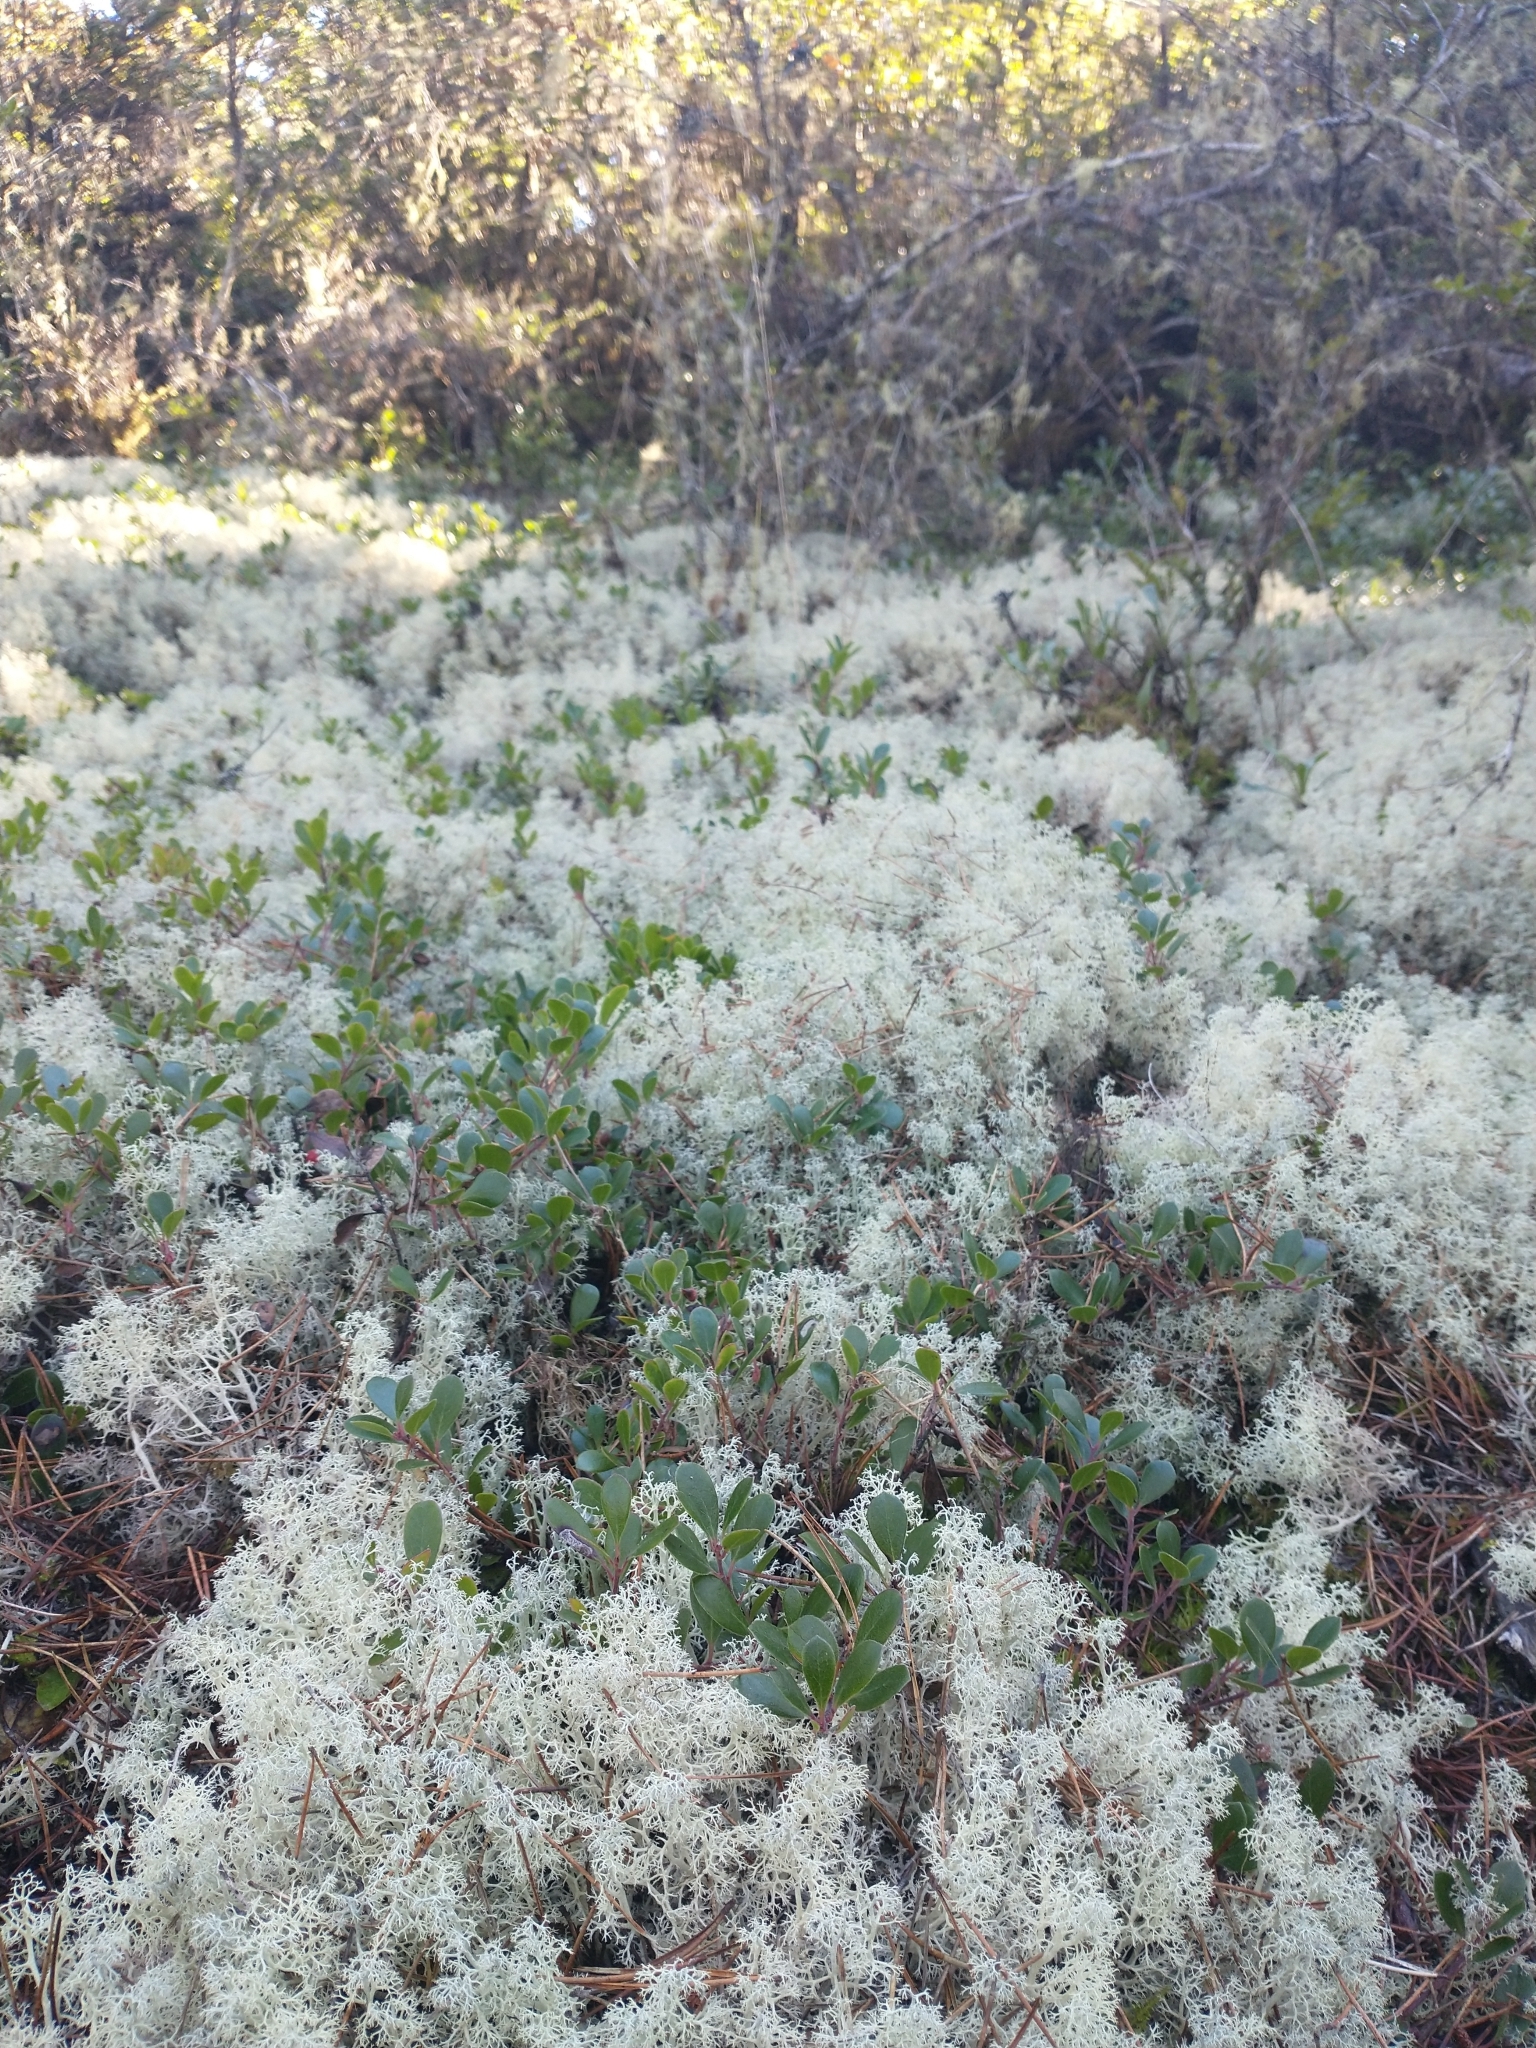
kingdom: Fungi
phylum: Ascomycota
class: Lecanoromycetes
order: Lecanorales
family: Cladoniaceae
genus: Cladonia
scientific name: Cladonia portentosa
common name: Reindeer lichen
